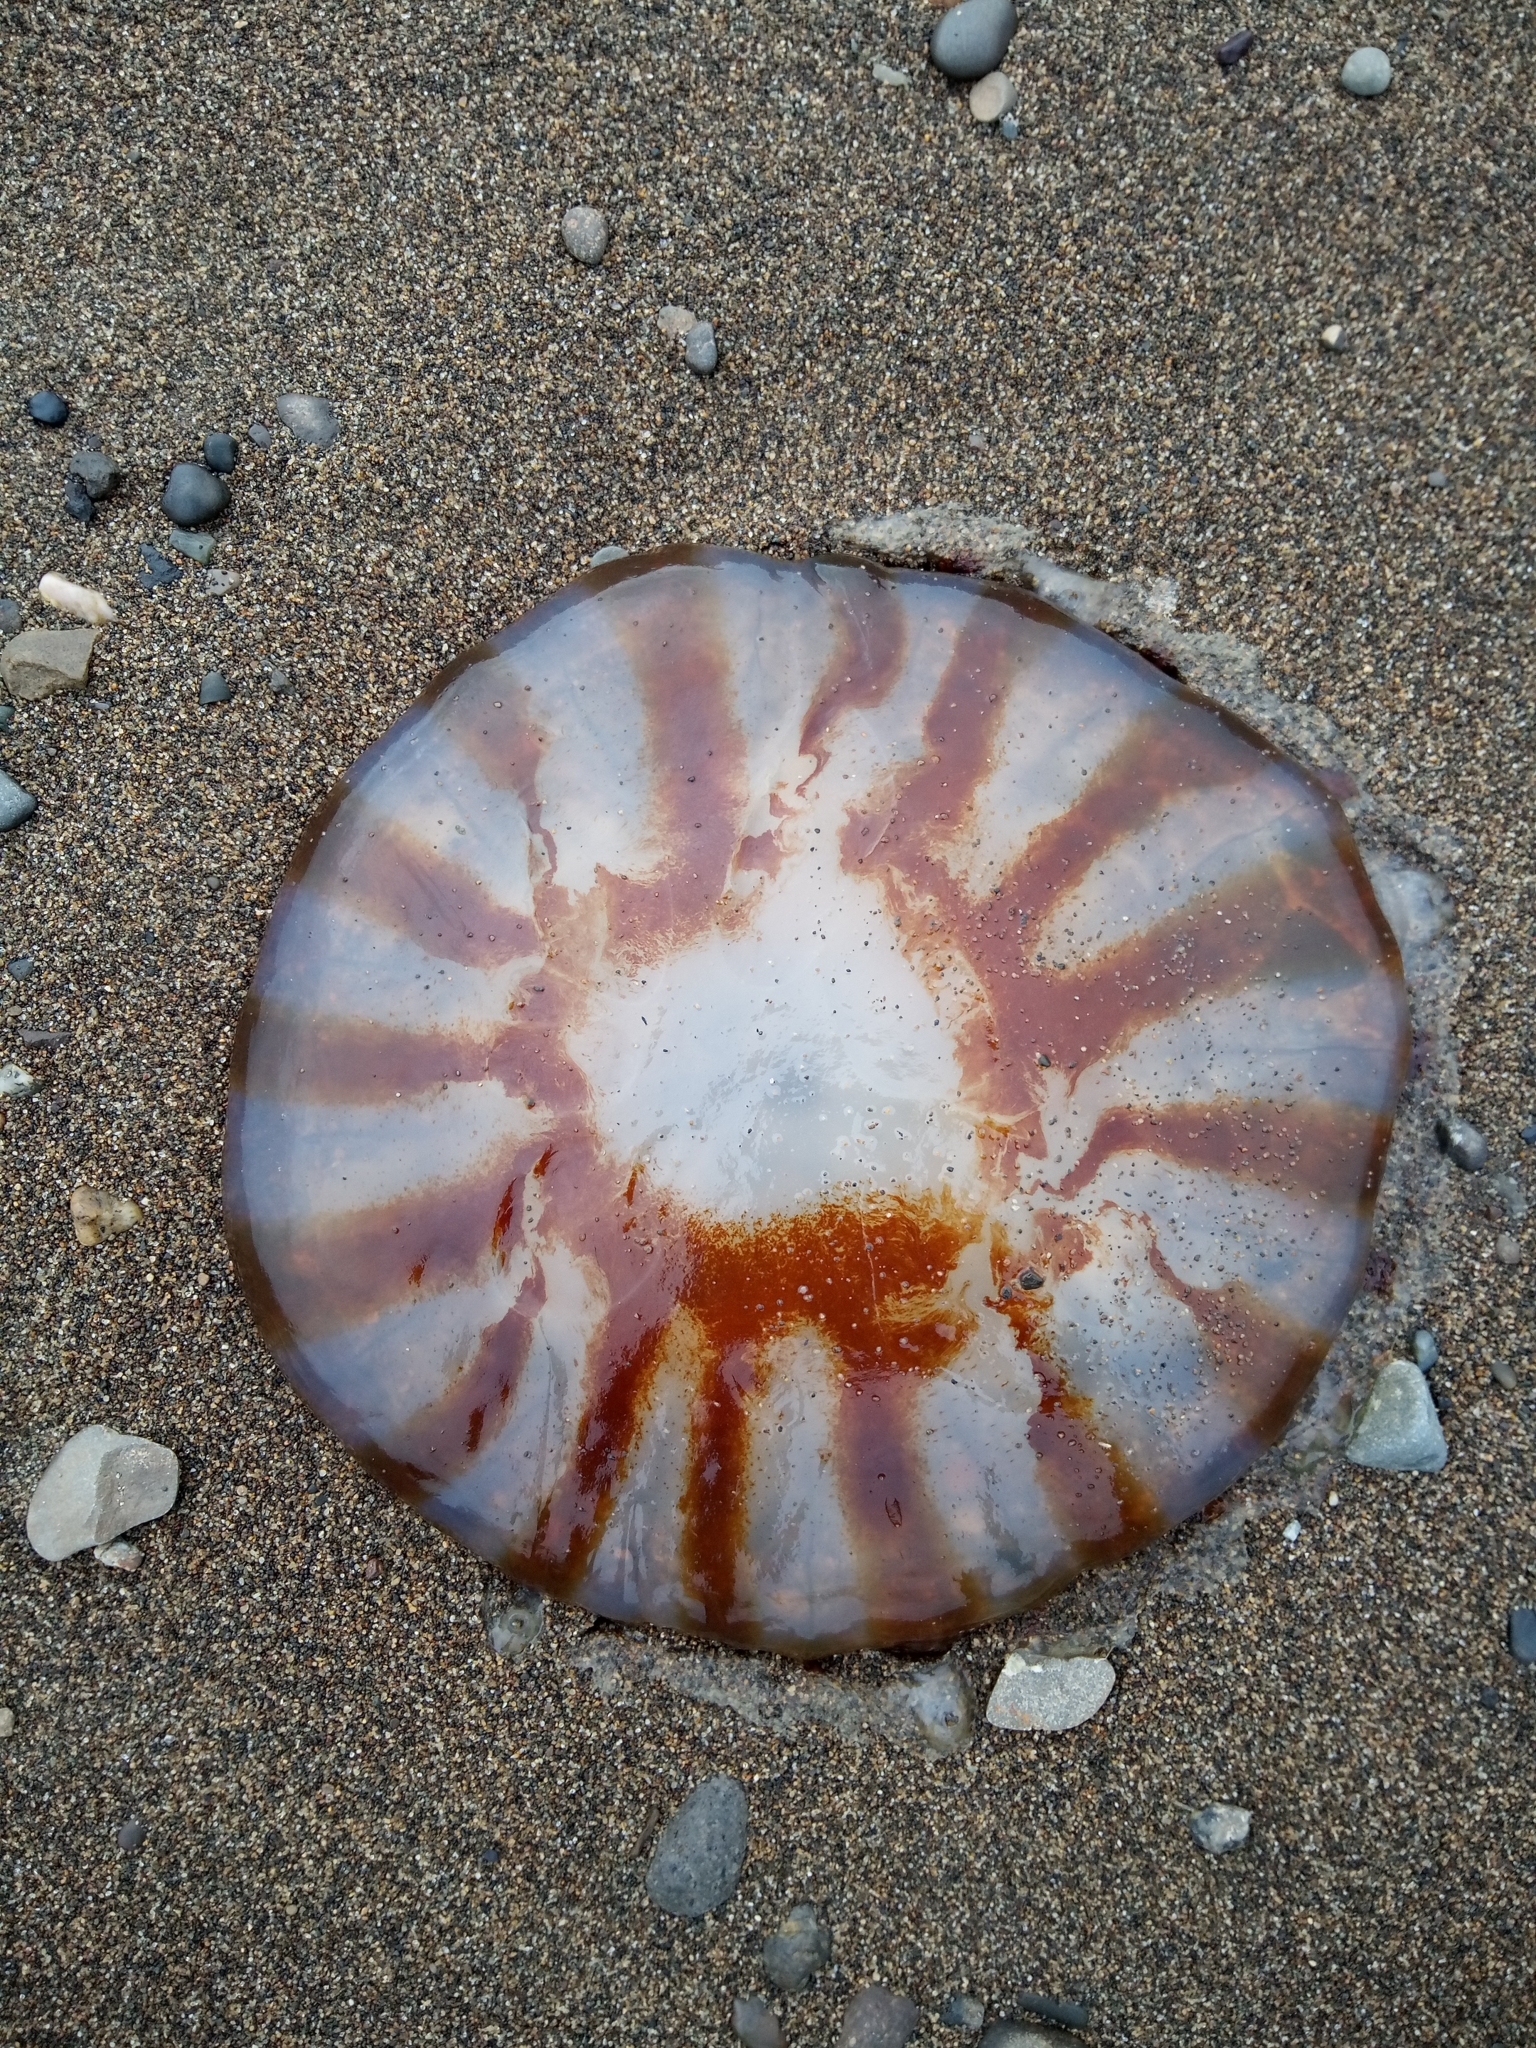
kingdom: Animalia
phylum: Cnidaria
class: Scyphozoa
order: Semaeostomeae
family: Pelagiidae
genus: Chrysaora
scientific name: Chrysaora melanaster
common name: Northern sea nettle
